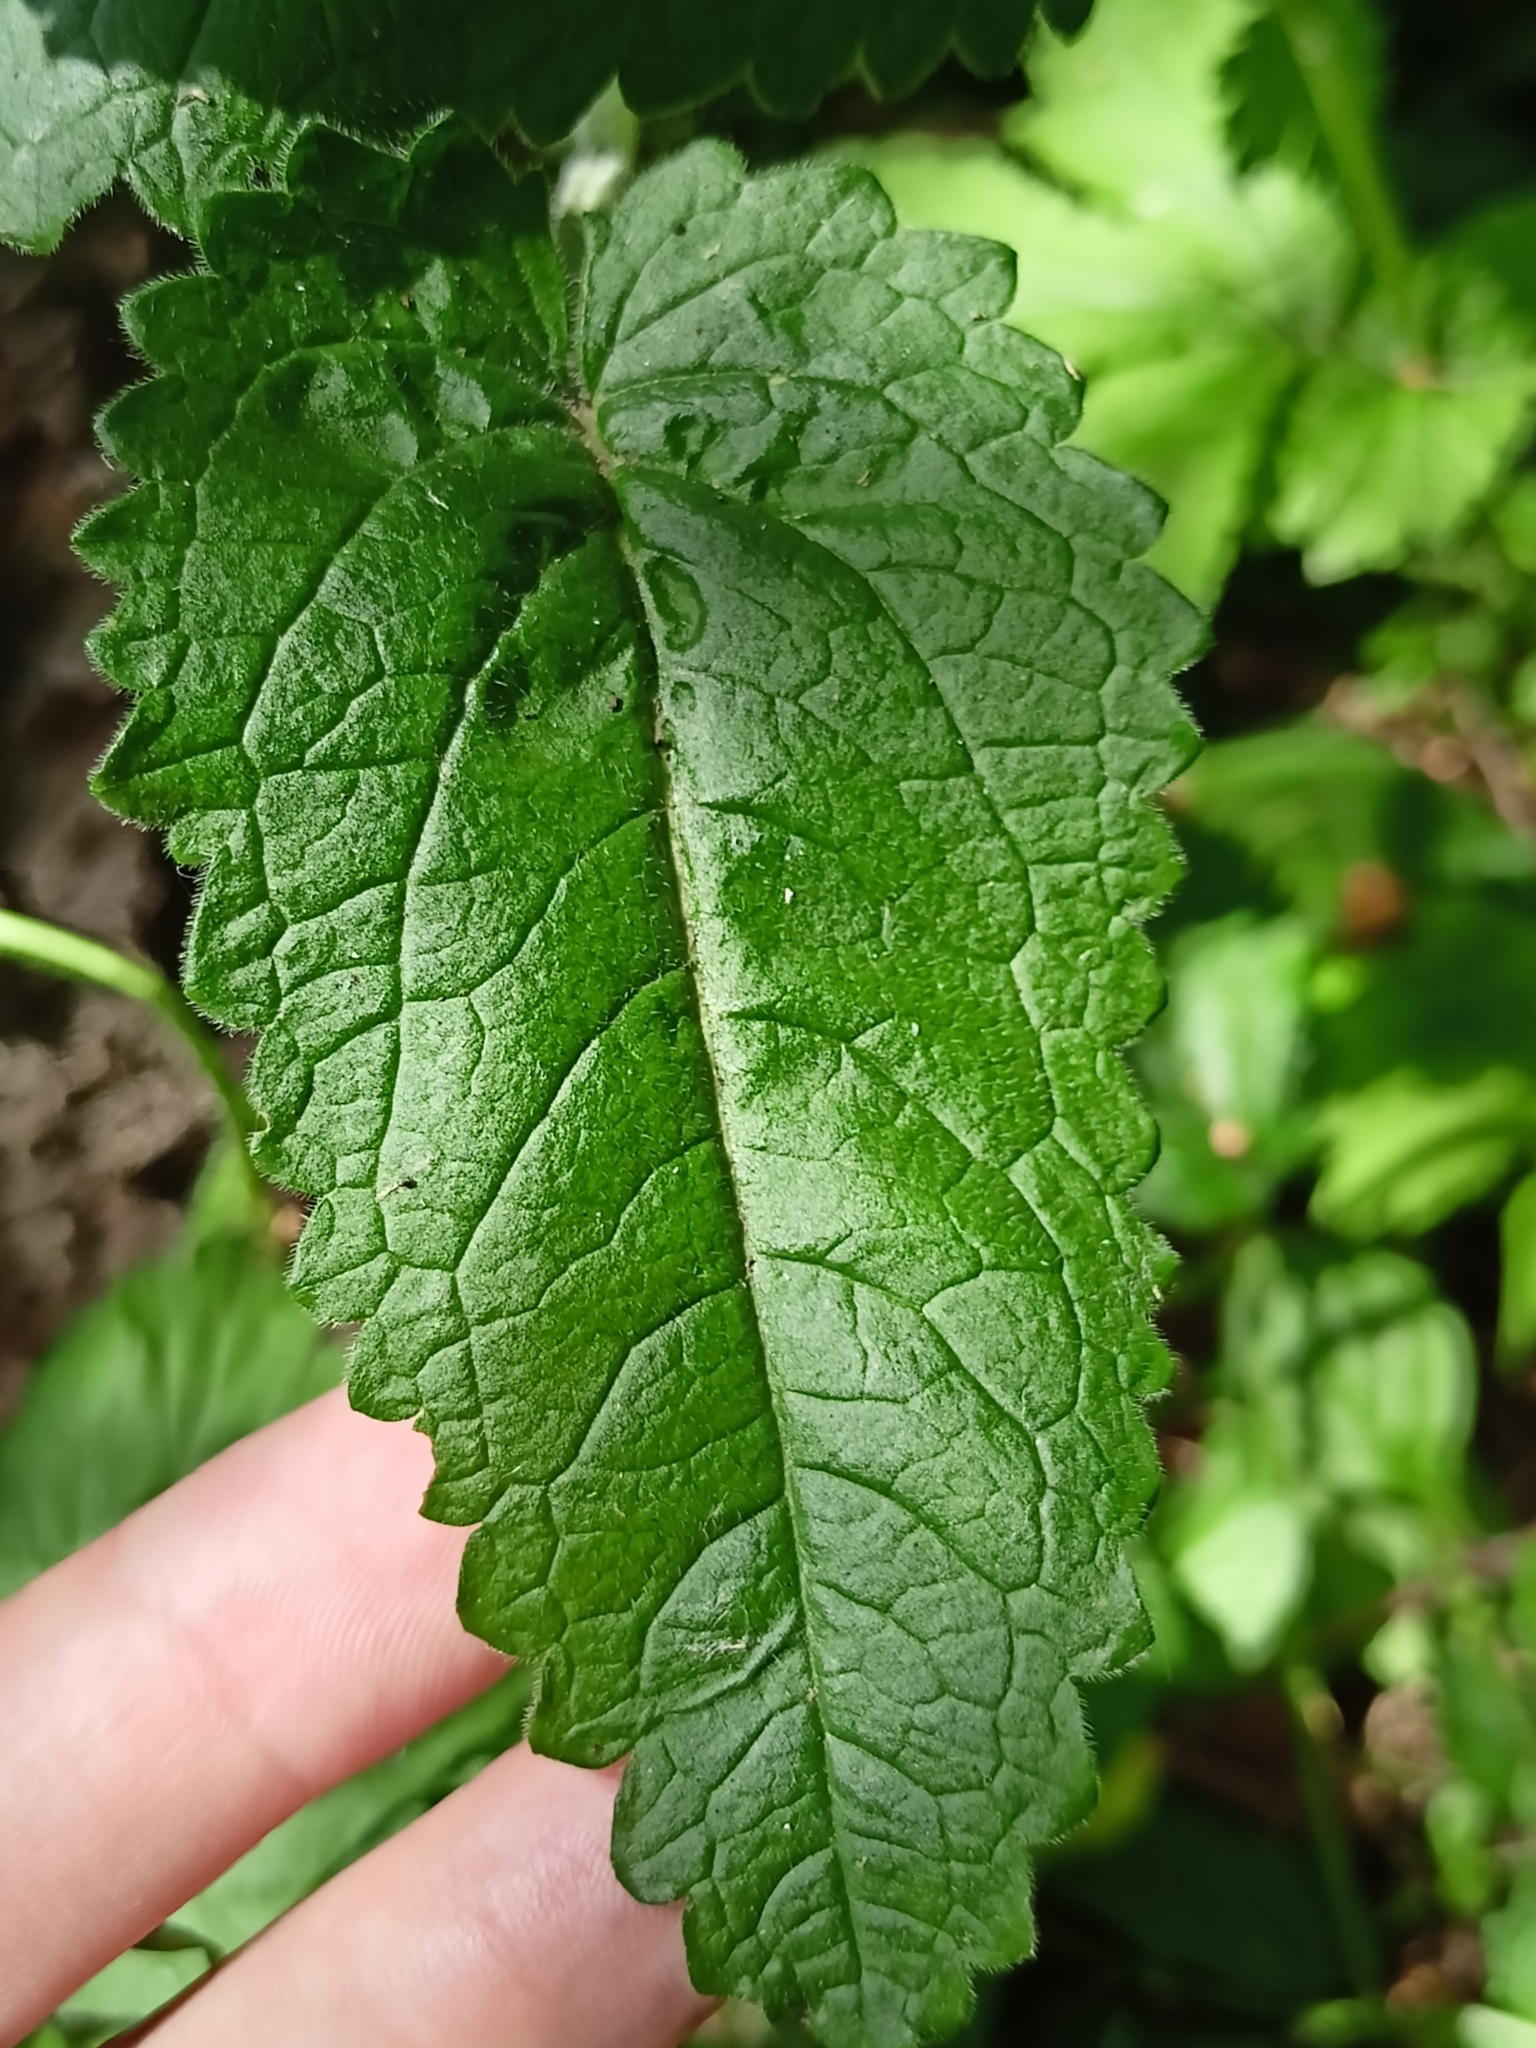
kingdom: Plantae
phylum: Tracheophyta
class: Magnoliopsida
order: Lamiales
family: Lamiaceae
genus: Betonica
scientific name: Betonica officinalis
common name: Bishop's-wort
